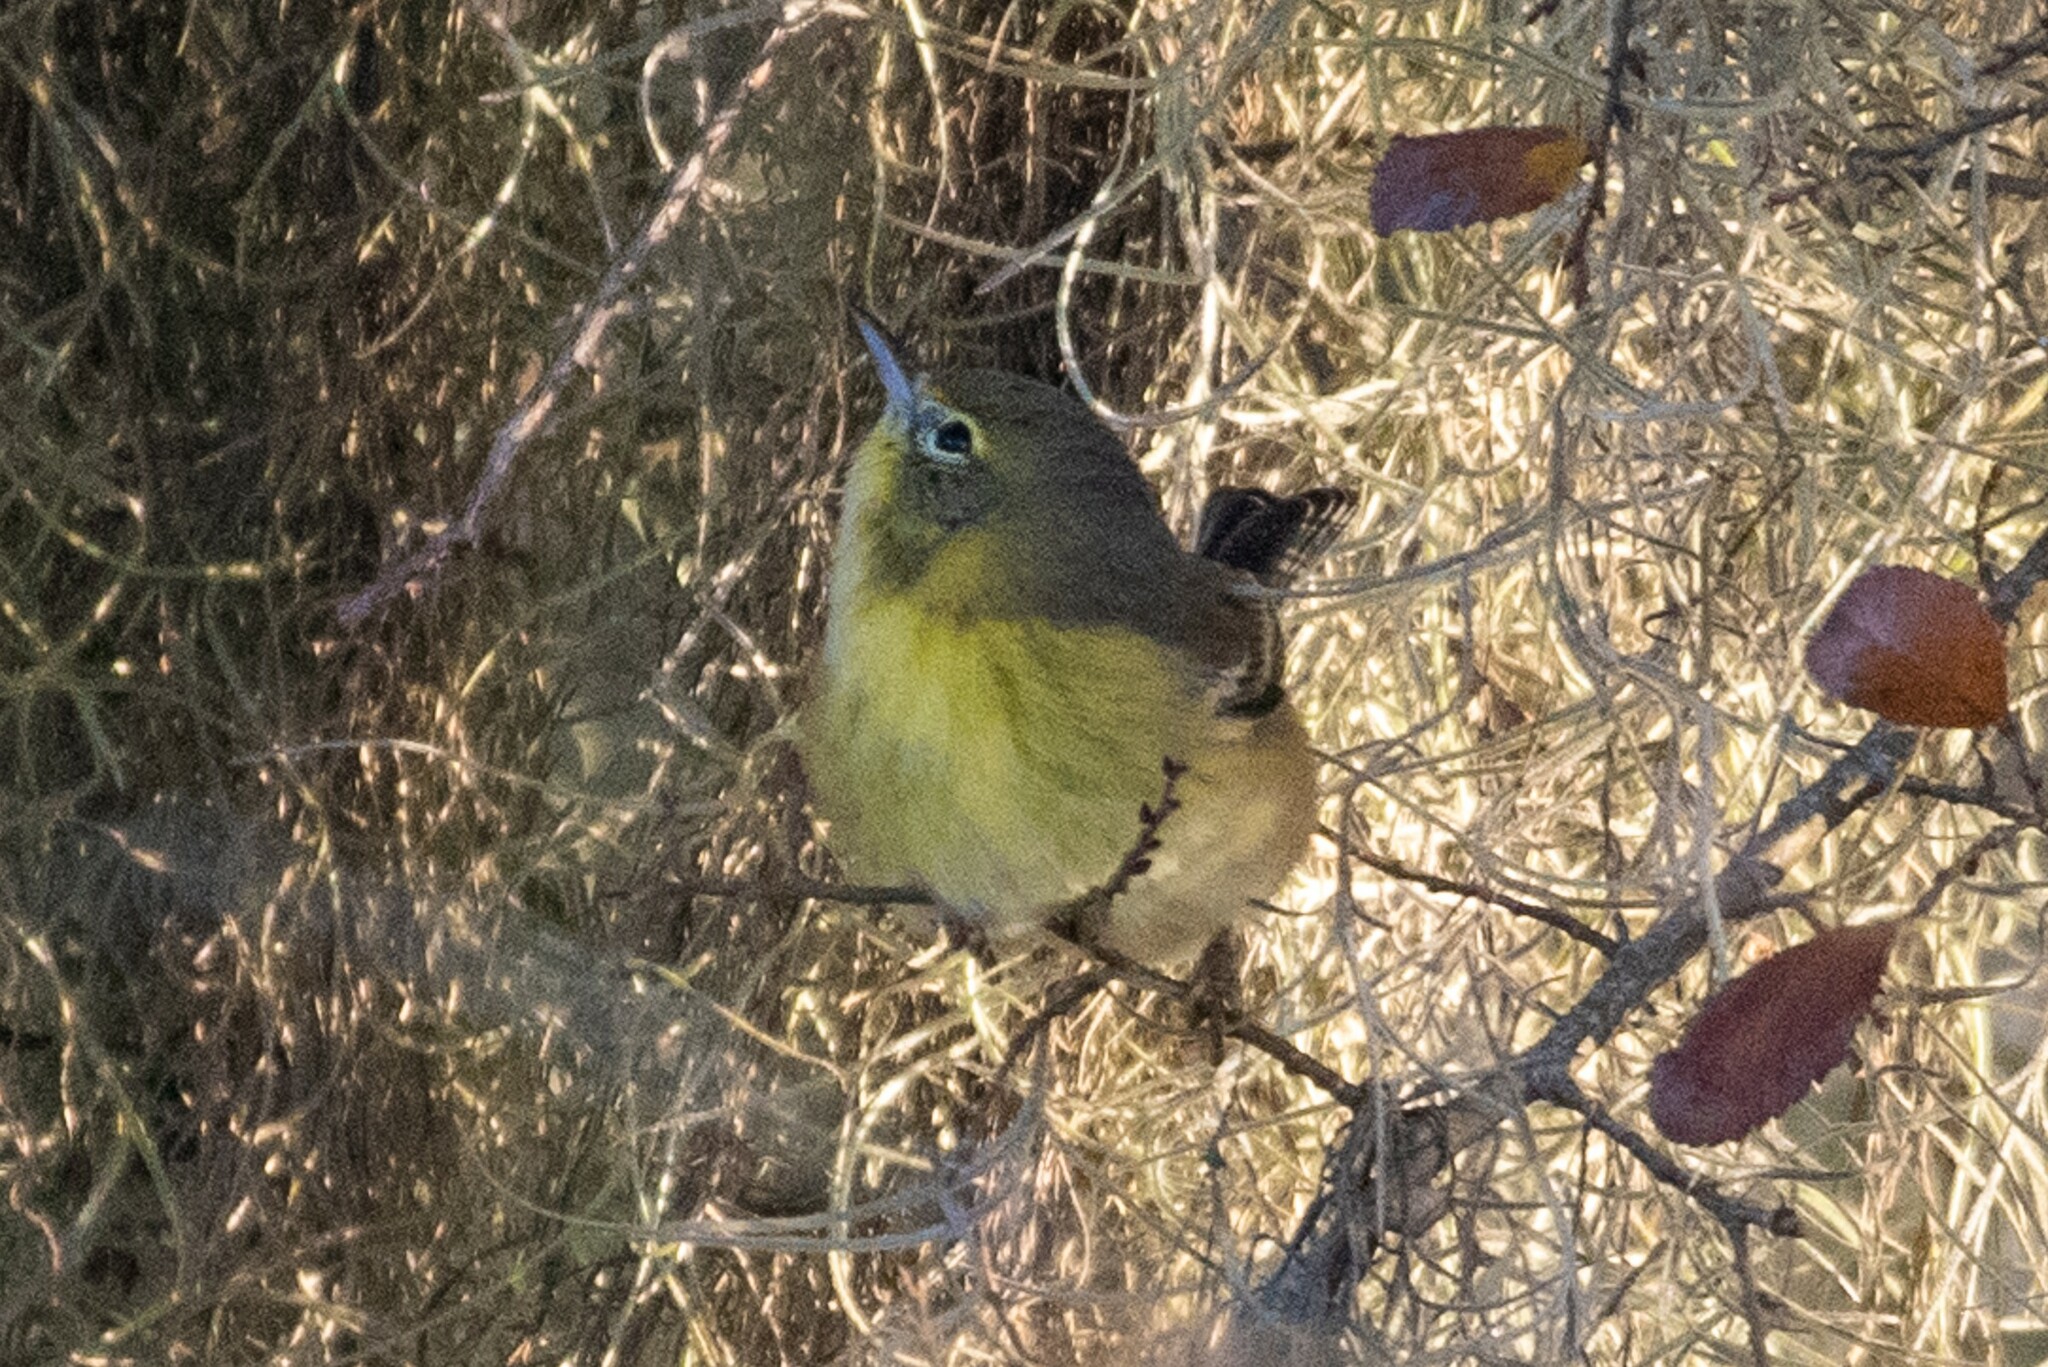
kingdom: Animalia
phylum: Chordata
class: Aves
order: Passeriformes
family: Parulidae
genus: Setophaga
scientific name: Setophaga pinus
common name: Pine warbler
